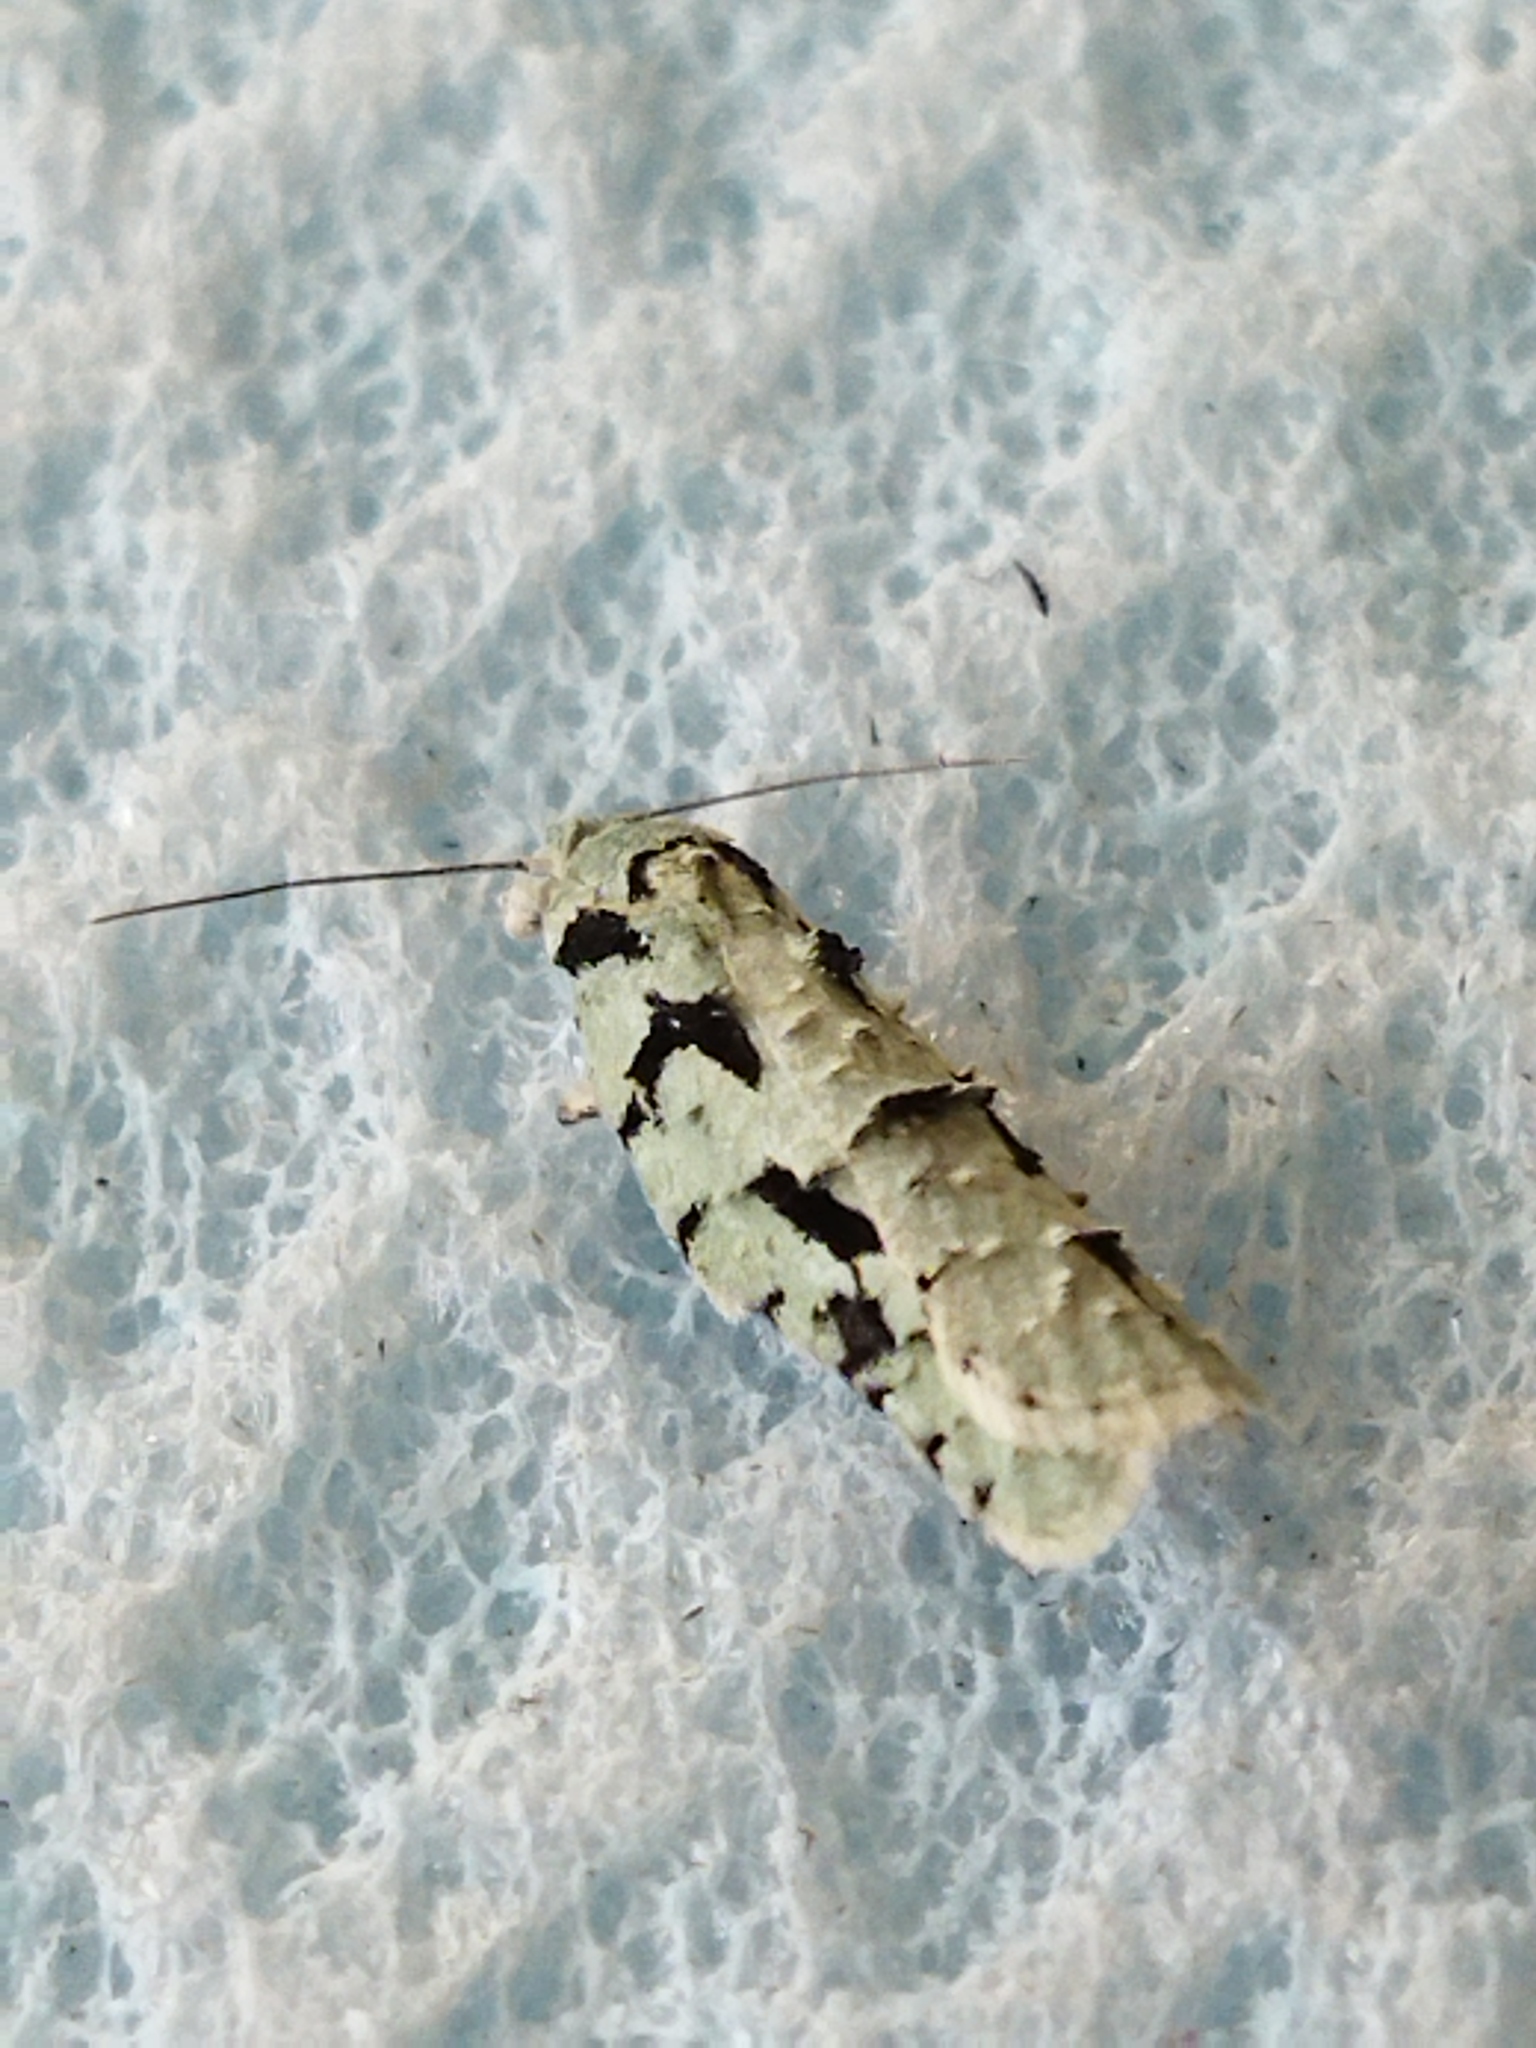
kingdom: Animalia
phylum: Arthropoda
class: Insecta
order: Lepidoptera
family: Tortricidae
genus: Acleris
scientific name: Acleris literana
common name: Lichen button
